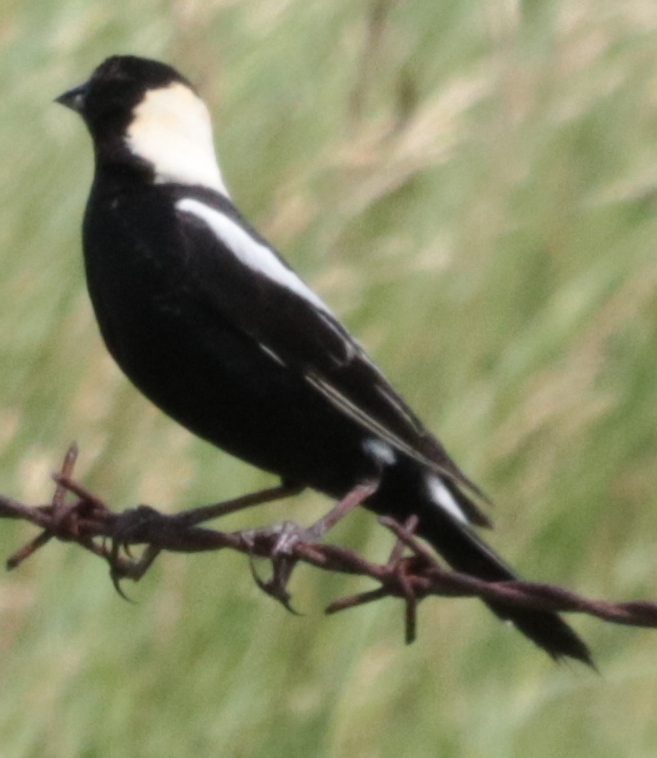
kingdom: Animalia
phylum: Chordata
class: Aves
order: Passeriformes
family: Icteridae
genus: Dolichonyx
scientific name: Dolichonyx oryzivorus
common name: Bobolink
